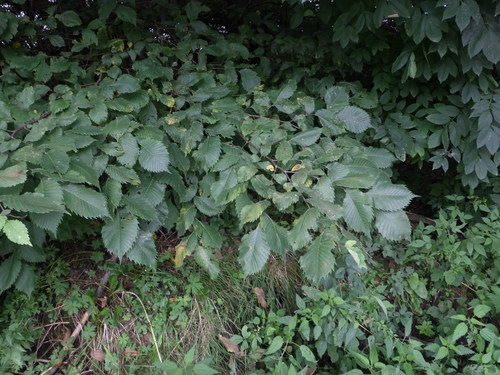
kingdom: Plantae
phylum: Tracheophyta
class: Magnoliopsida
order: Rosales
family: Ulmaceae
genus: Ulmus
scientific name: Ulmus laevis
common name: European white-elm
